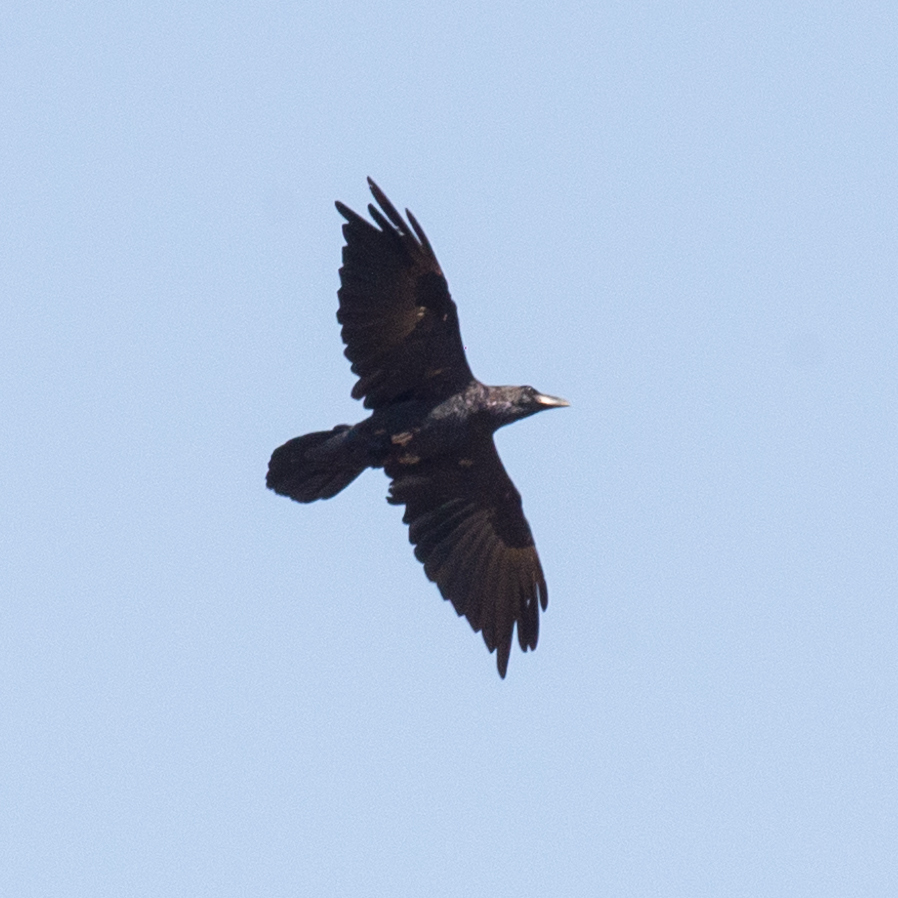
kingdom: Animalia
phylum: Chordata
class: Aves
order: Passeriformes
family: Corvidae
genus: Corvus
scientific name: Corvus corax
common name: Common raven
